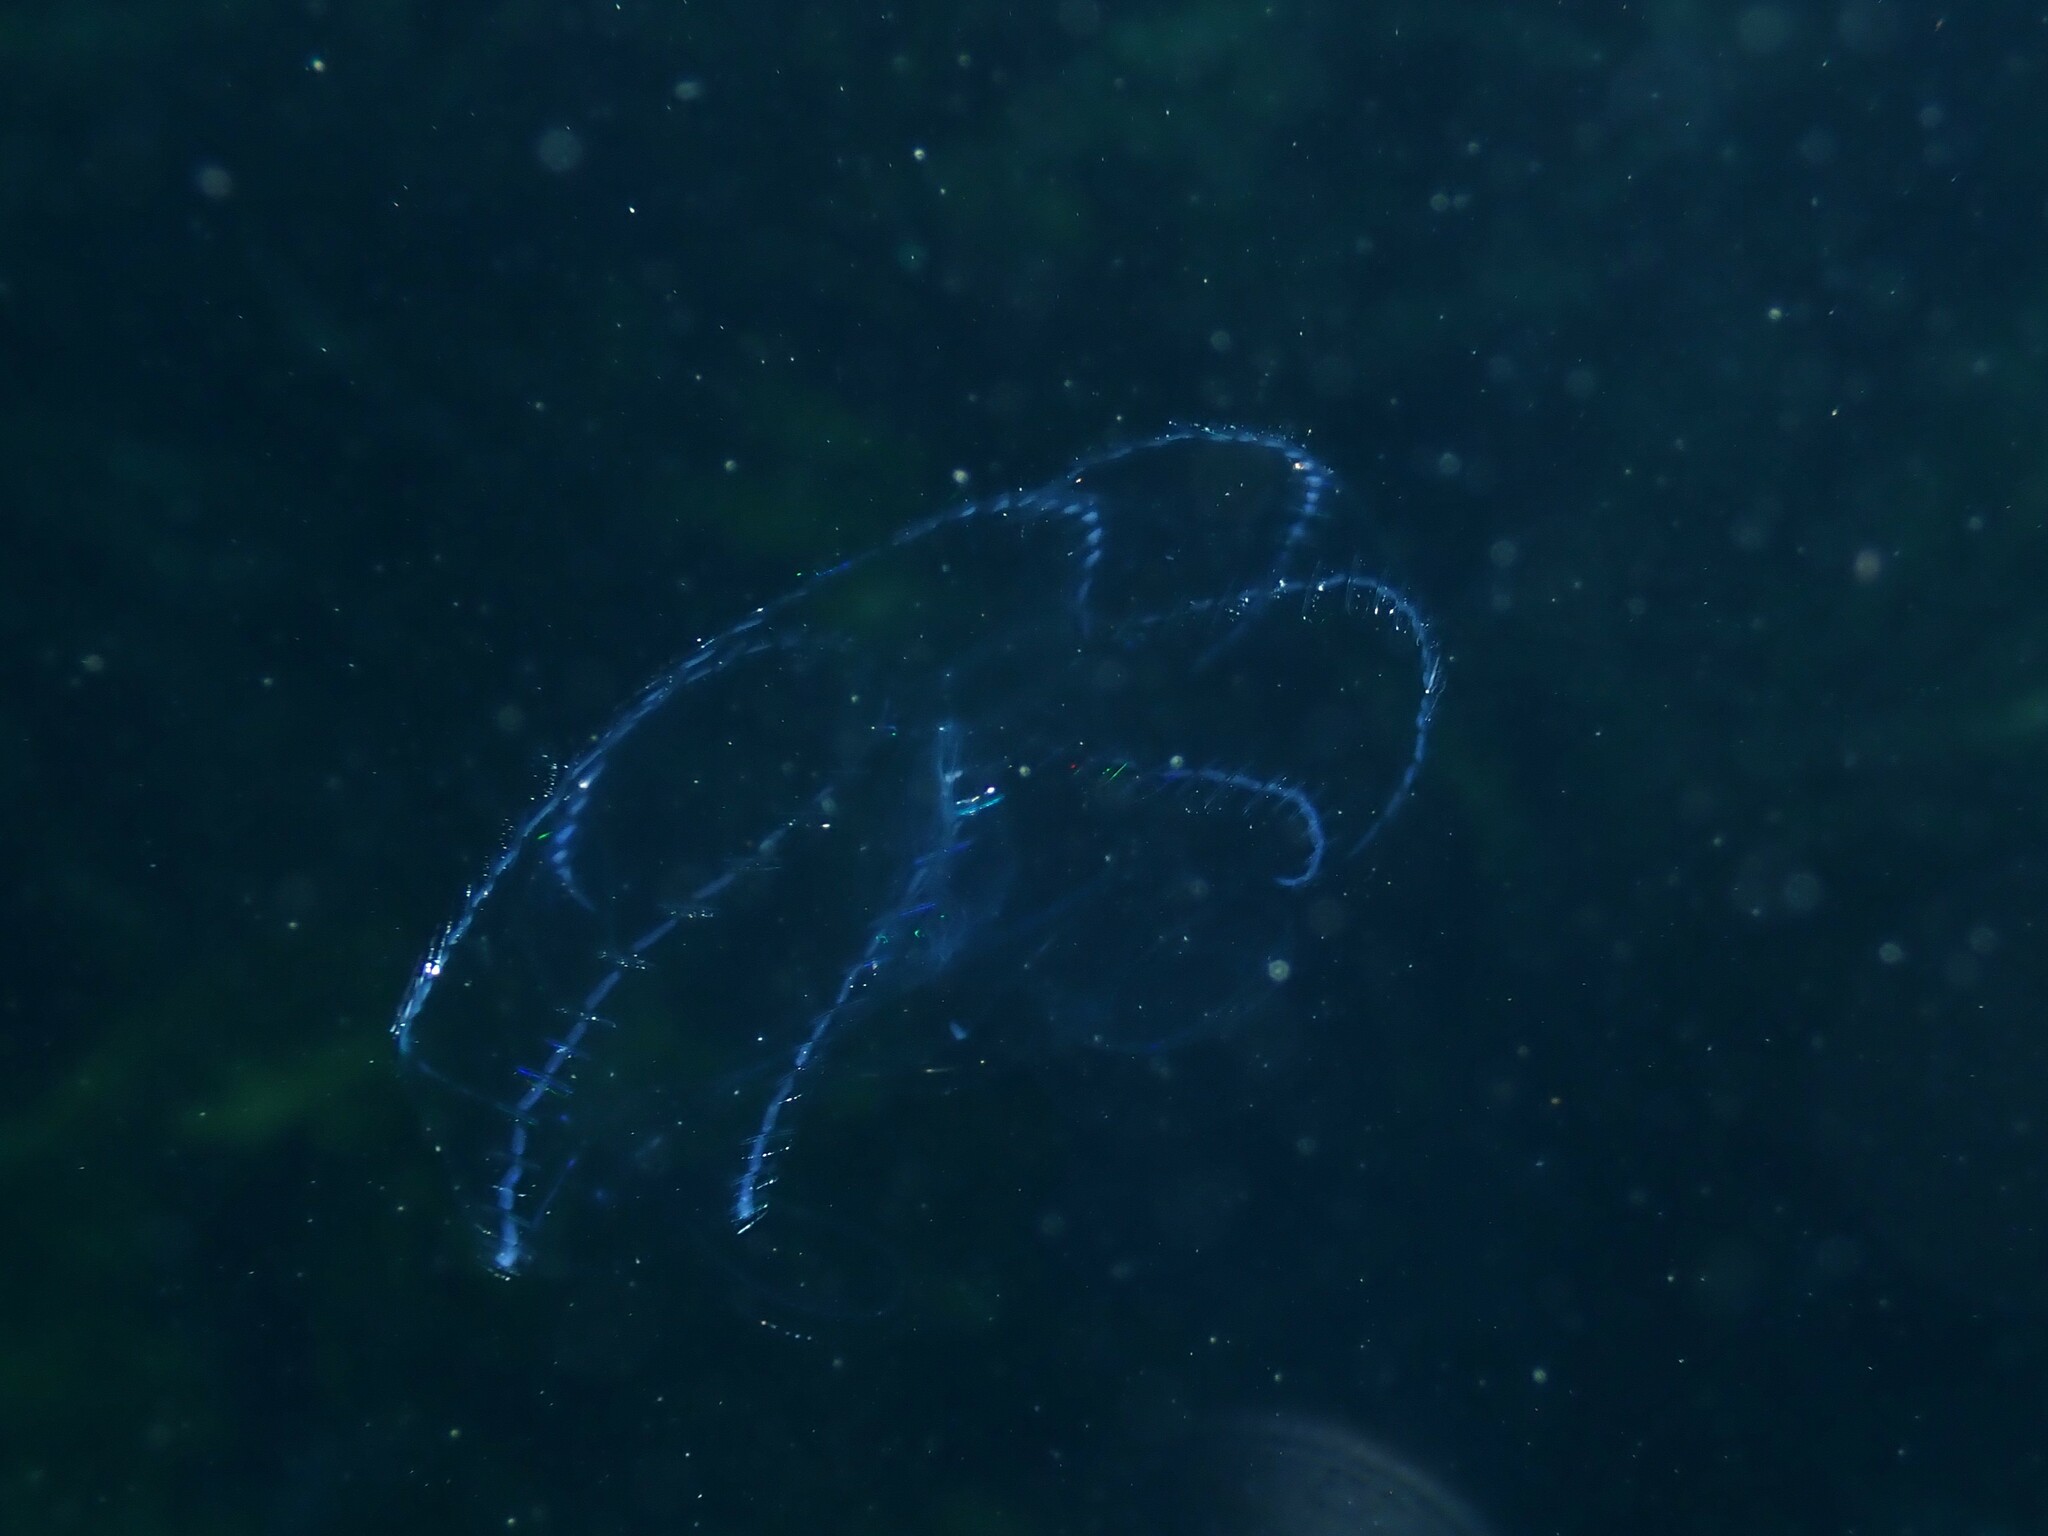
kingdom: Animalia
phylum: Ctenophora
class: Tentaculata
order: Lobata
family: Eurhamphaeidae
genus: Deiopea
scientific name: Deiopea kaloktenota
